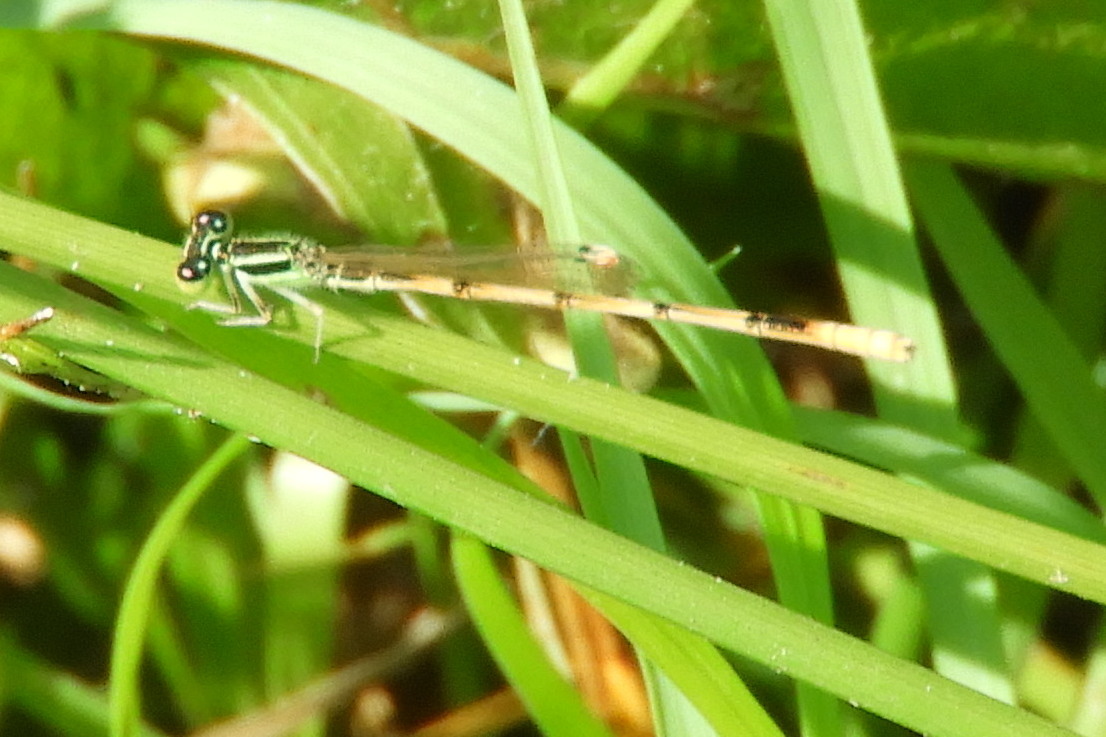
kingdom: Animalia
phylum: Arthropoda
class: Insecta
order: Odonata
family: Coenagrionidae
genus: Ischnura
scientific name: Ischnura hastata
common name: Citrine forktail
